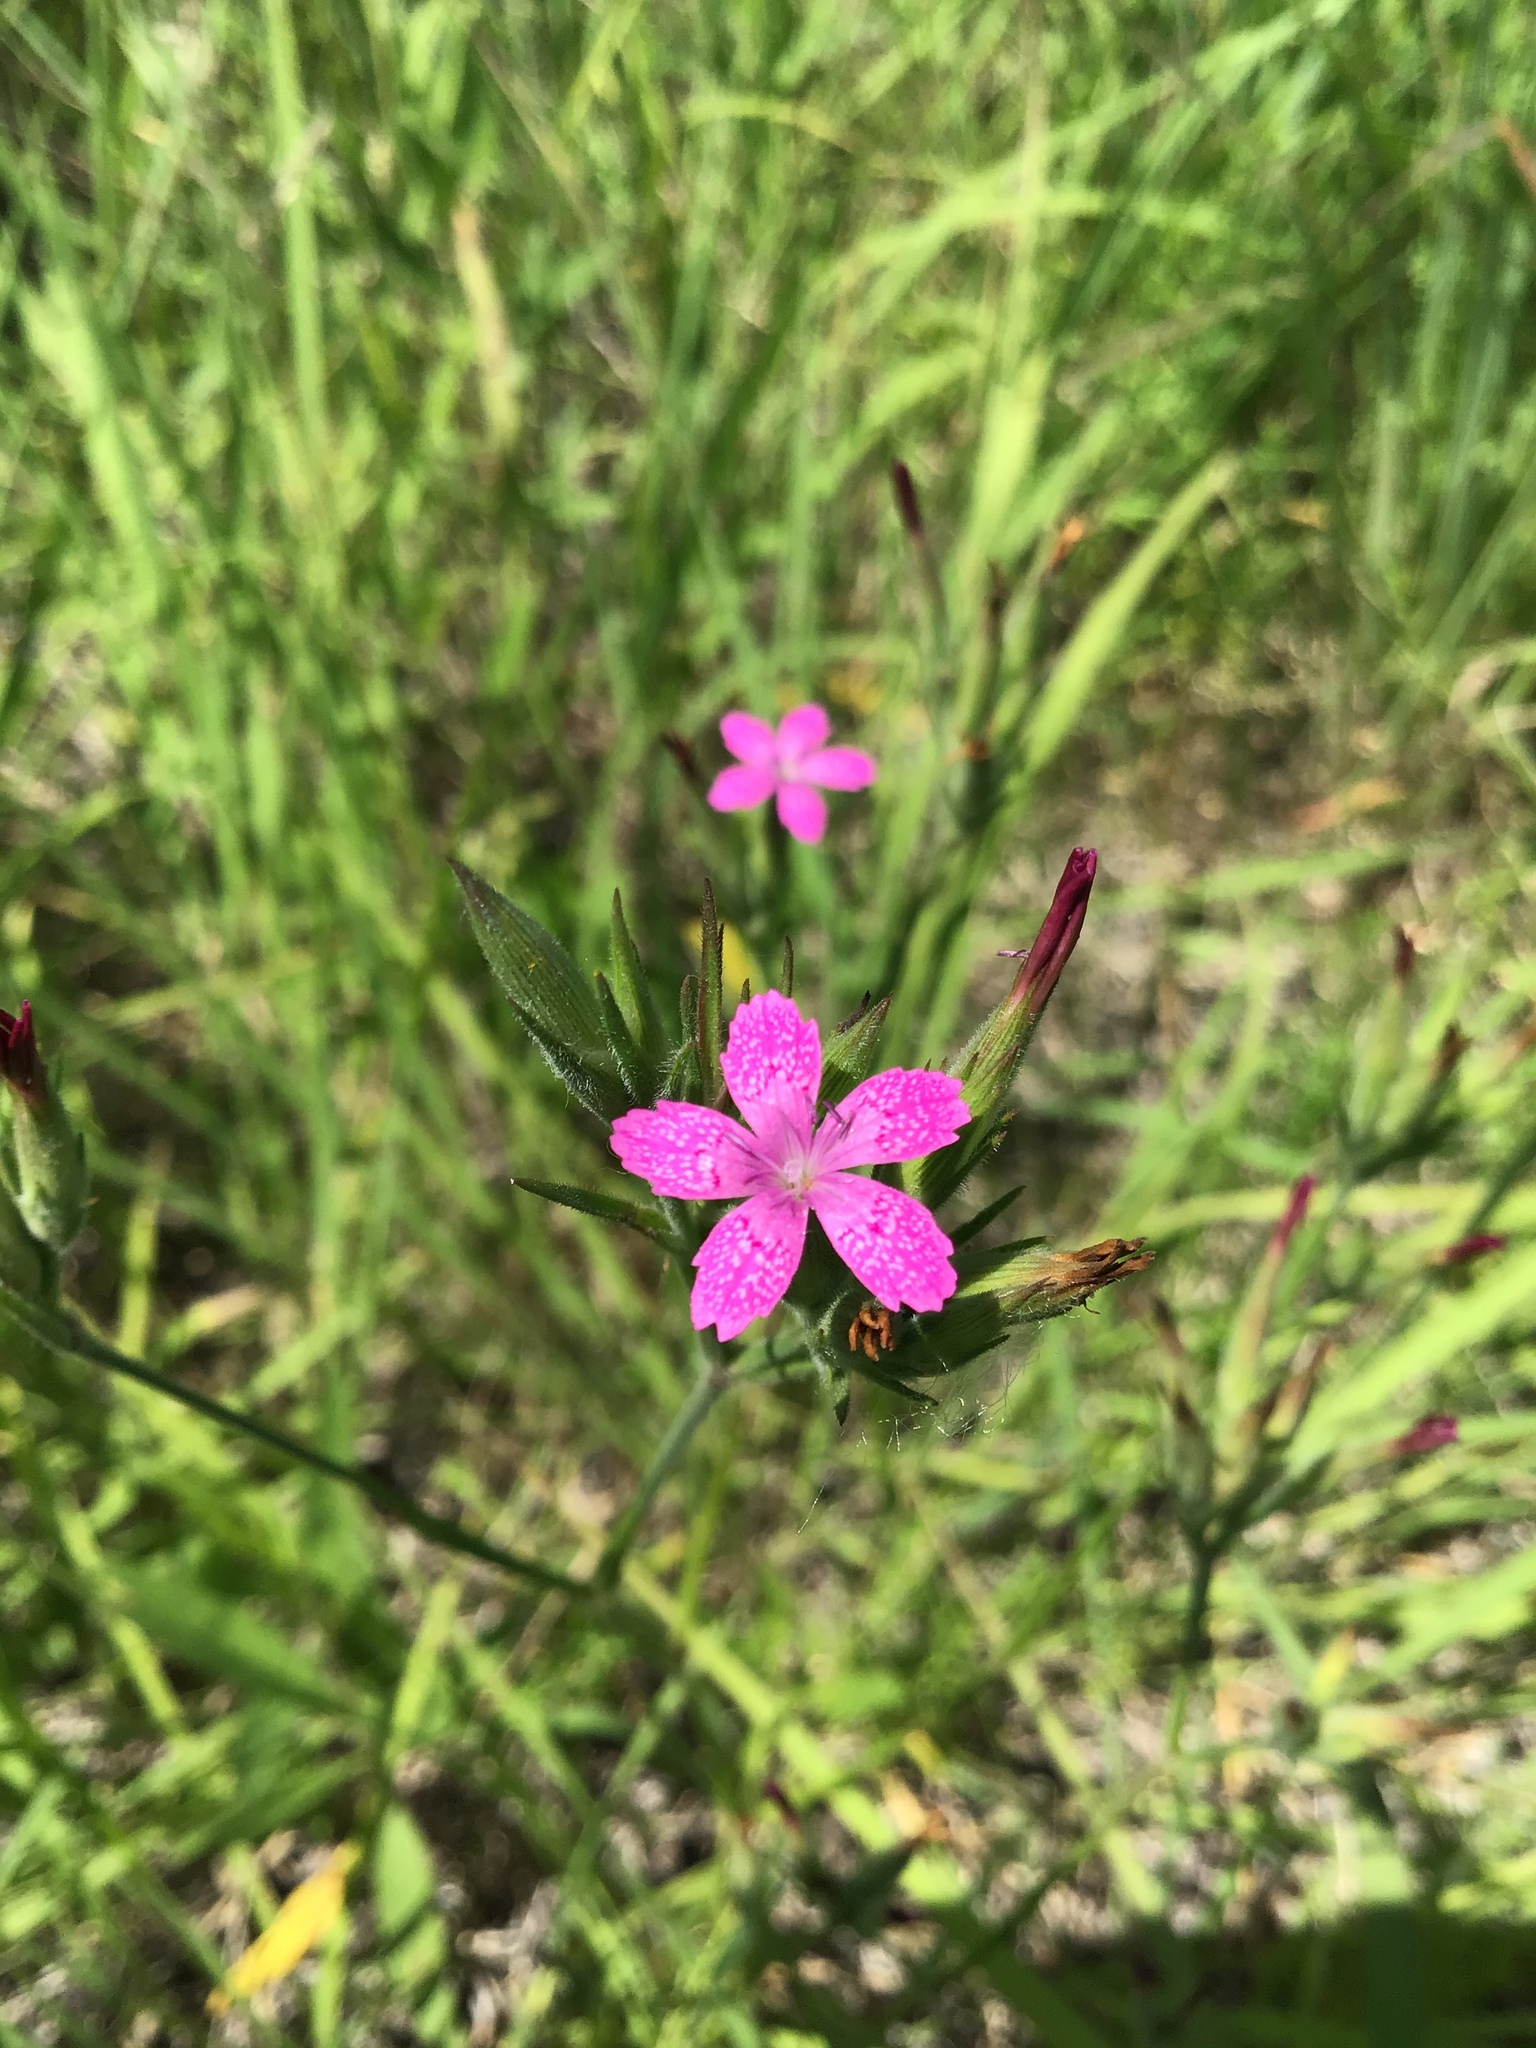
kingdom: Plantae
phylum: Tracheophyta
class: Magnoliopsida
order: Caryophyllales
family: Caryophyllaceae
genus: Dianthus
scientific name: Dianthus armeria
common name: Deptford pink
